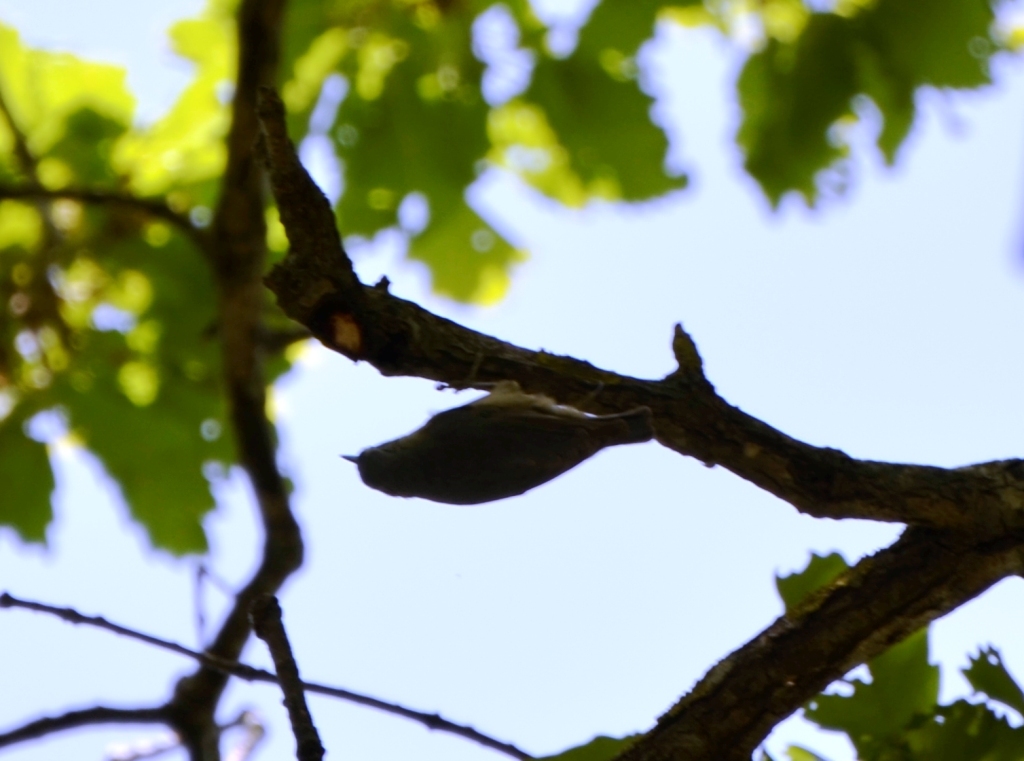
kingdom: Animalia
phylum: Chordata
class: Aves
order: Passeriformes
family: Sittidae
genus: Sitta
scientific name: Sitta ledanti
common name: Algerian nuthatch
